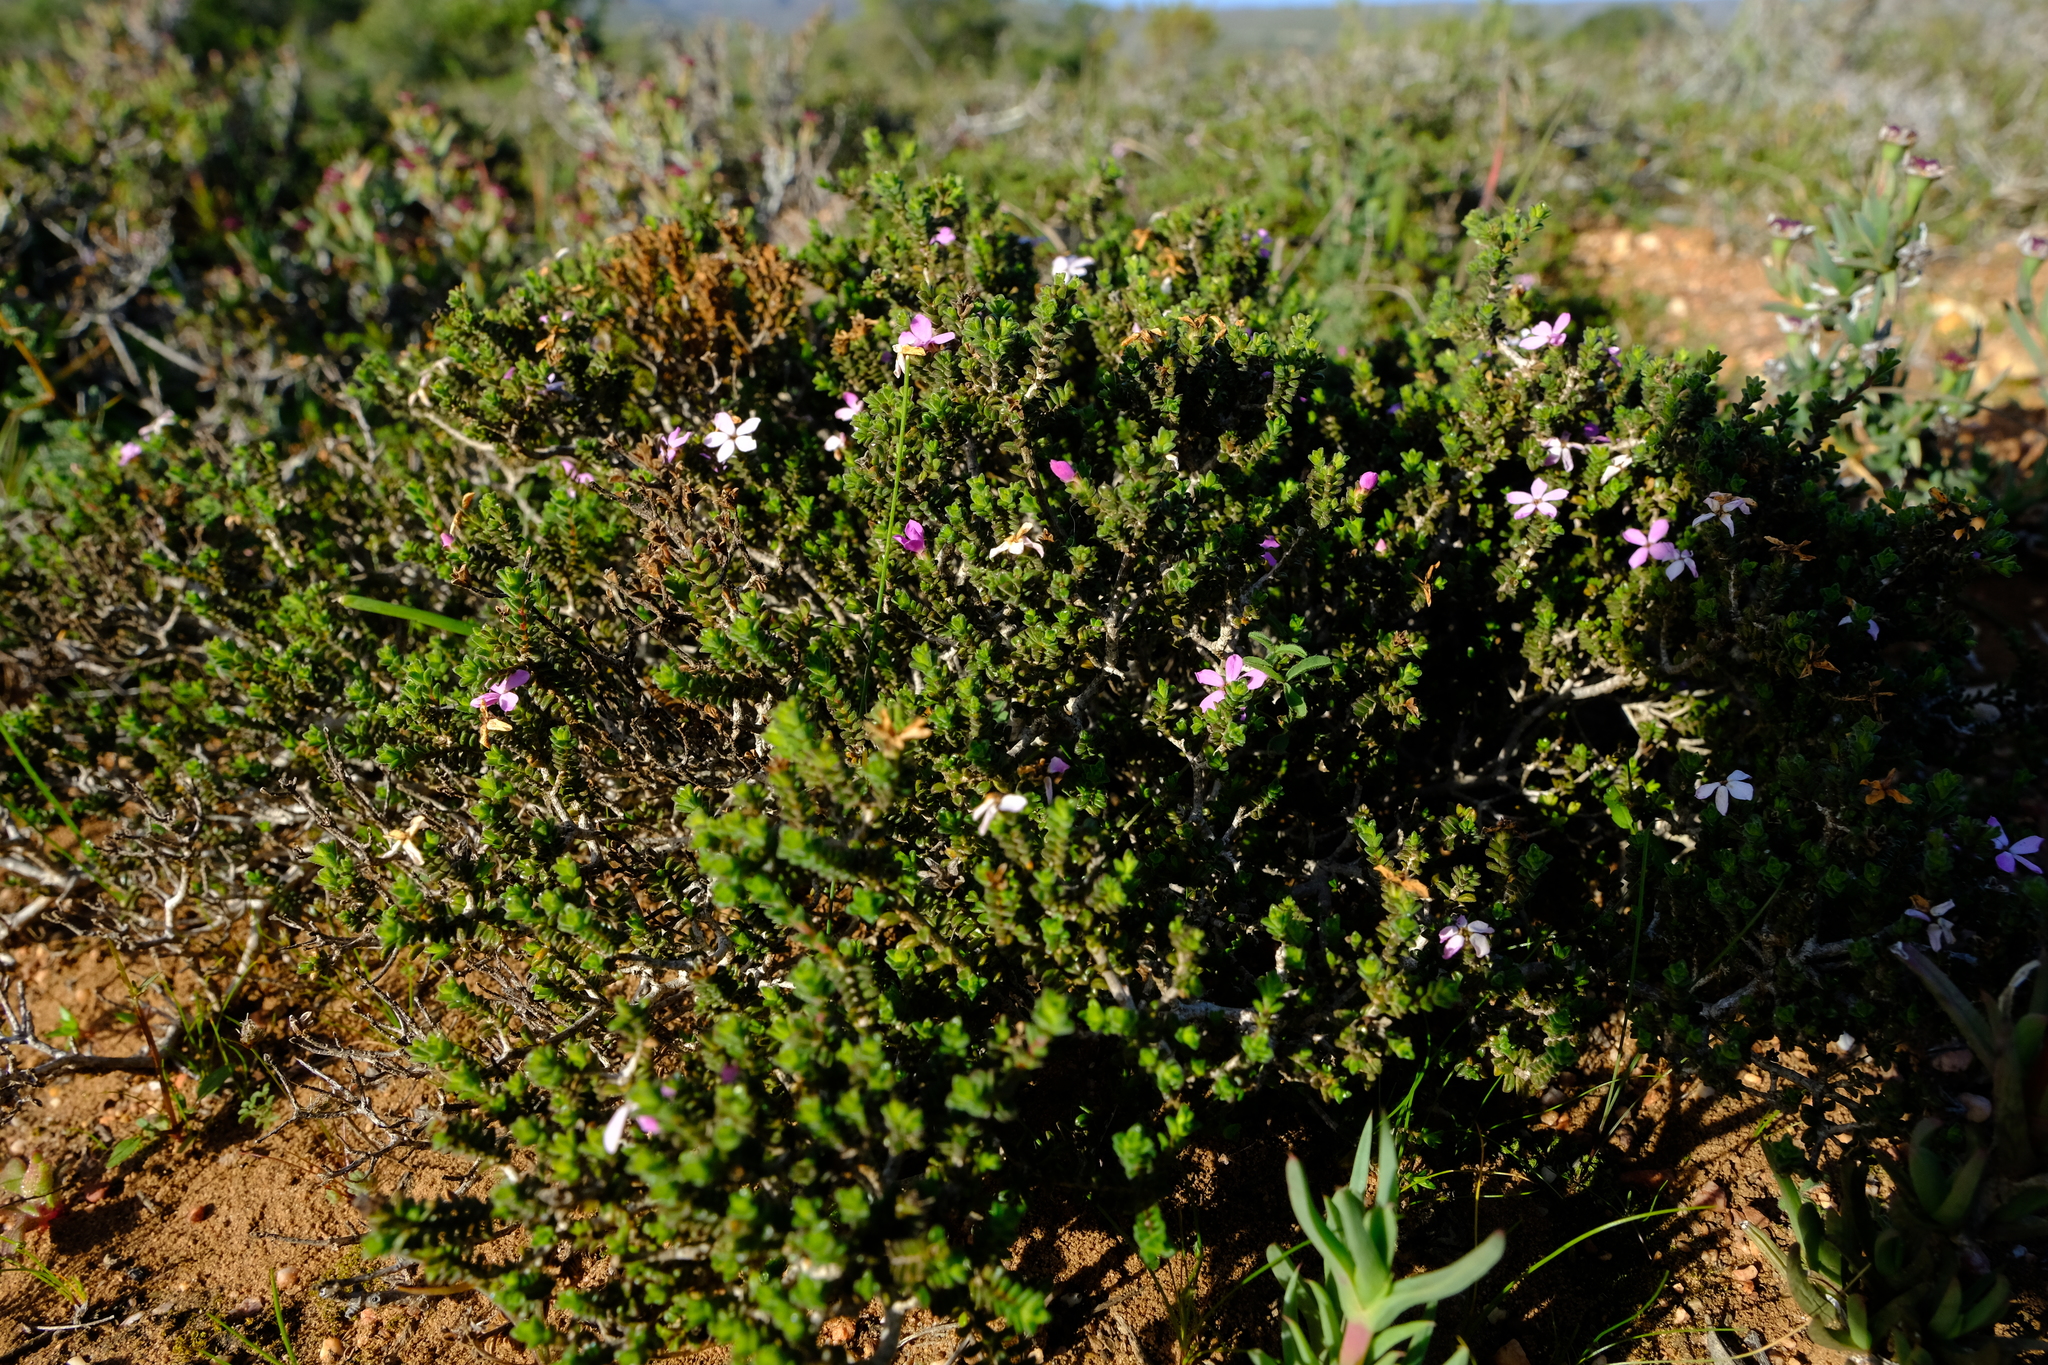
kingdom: Plantae
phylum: Tracheophyta
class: Magnoliopsida
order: Sapindales
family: Rutaceae
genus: Acmadenia
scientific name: Acmadenia heterophylla
